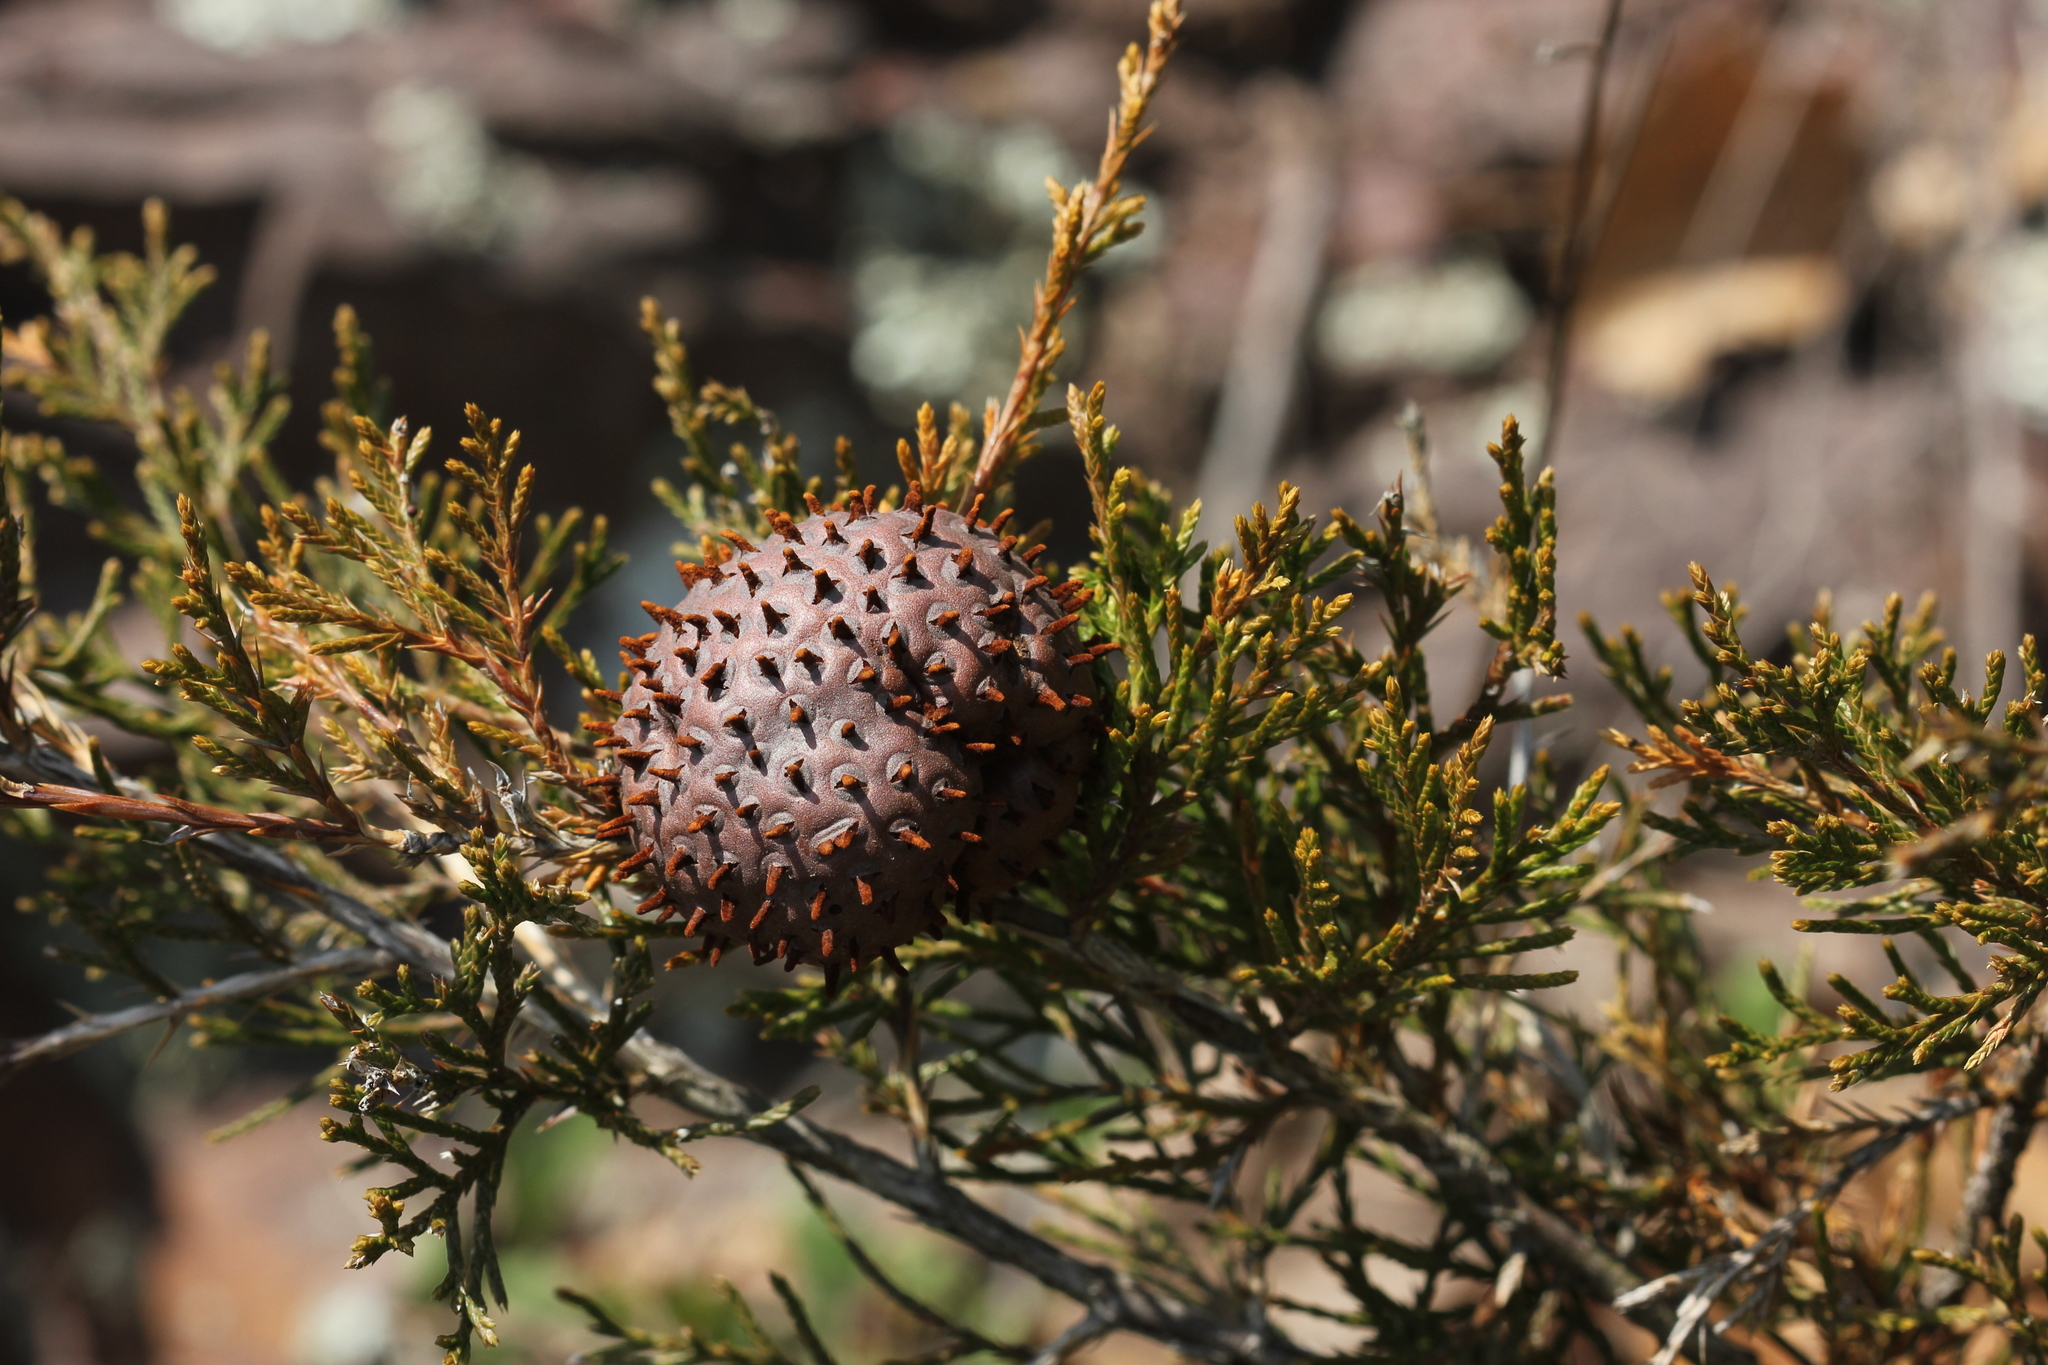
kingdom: Fungi
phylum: Basidiomycota
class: Pucciniomycetes
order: Pucciniales
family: Gymnosporangiaceae
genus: Gymnosporangium
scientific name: Gymnosporangium juniperi-virginianae
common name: Juniper-apple rust
